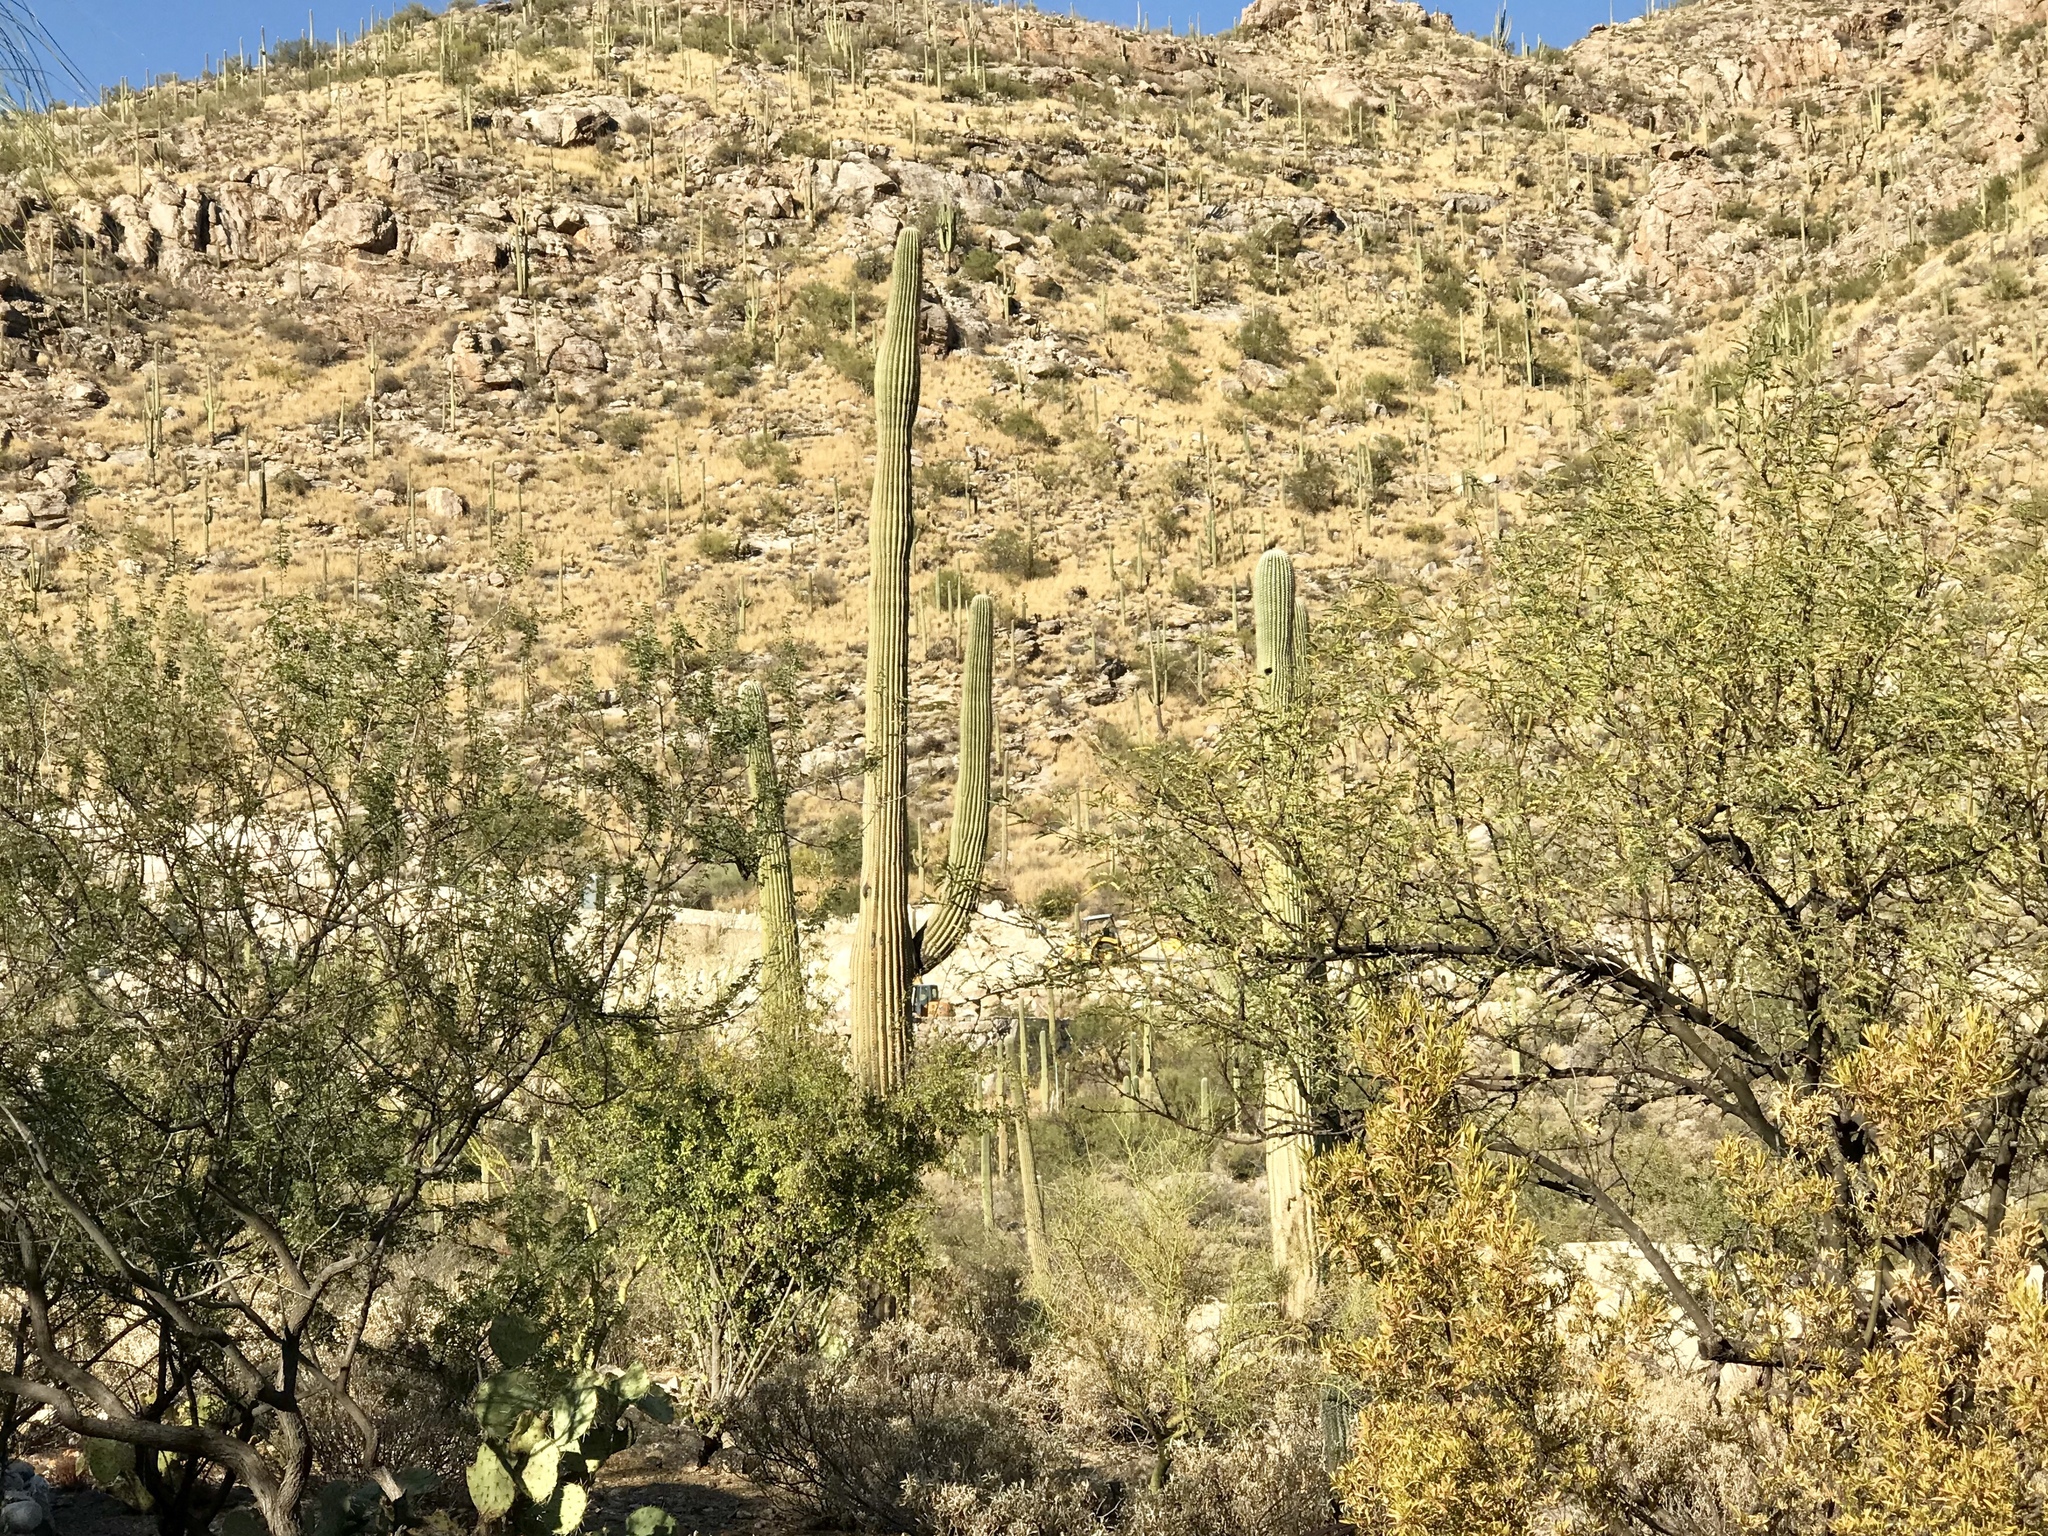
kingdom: Plantae
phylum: Tracheophyta
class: Magnoliopsida
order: Caryophyllales
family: Cactaceae
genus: Carnegiea
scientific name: Carnegiea gigantea
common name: Saguaro
